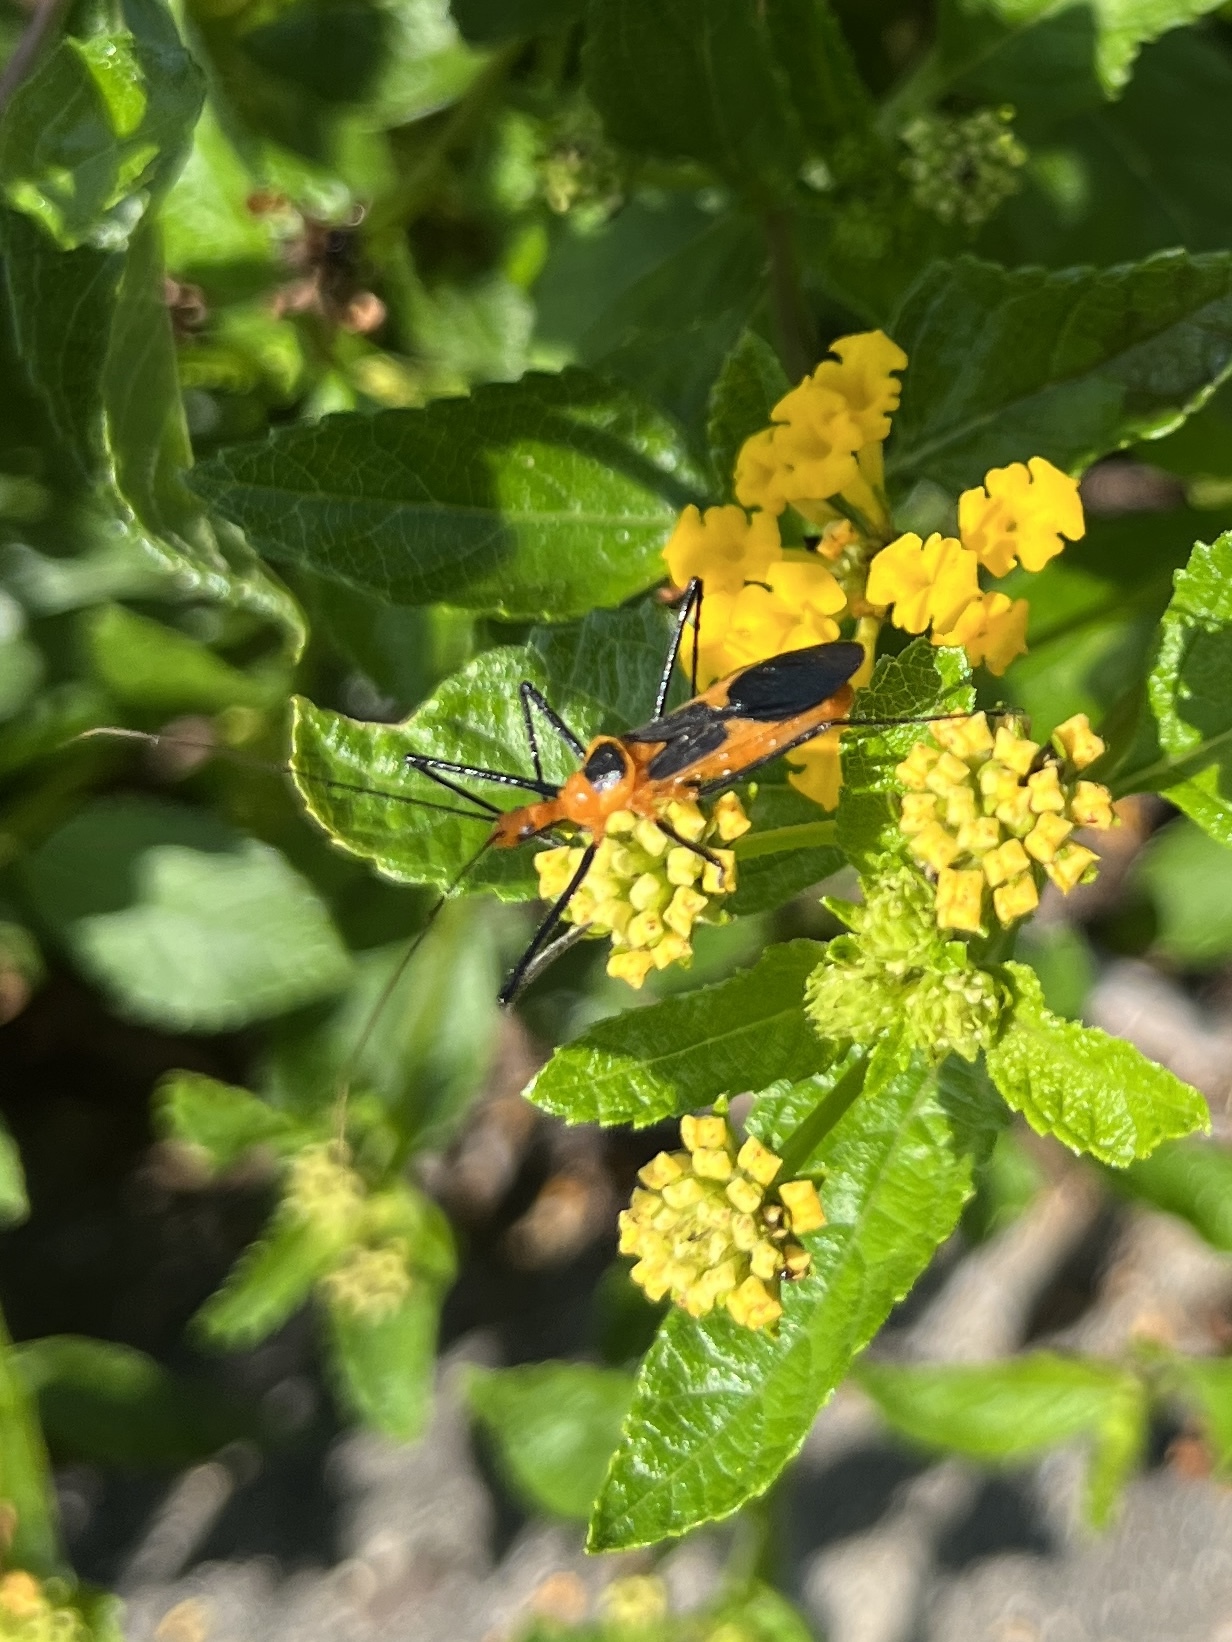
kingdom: Animalia
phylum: Arthropoda
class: Insecta
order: Hemiptera
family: Reduviidae
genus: Zelus
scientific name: Zelus longipes
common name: Milkweed assassin bug
